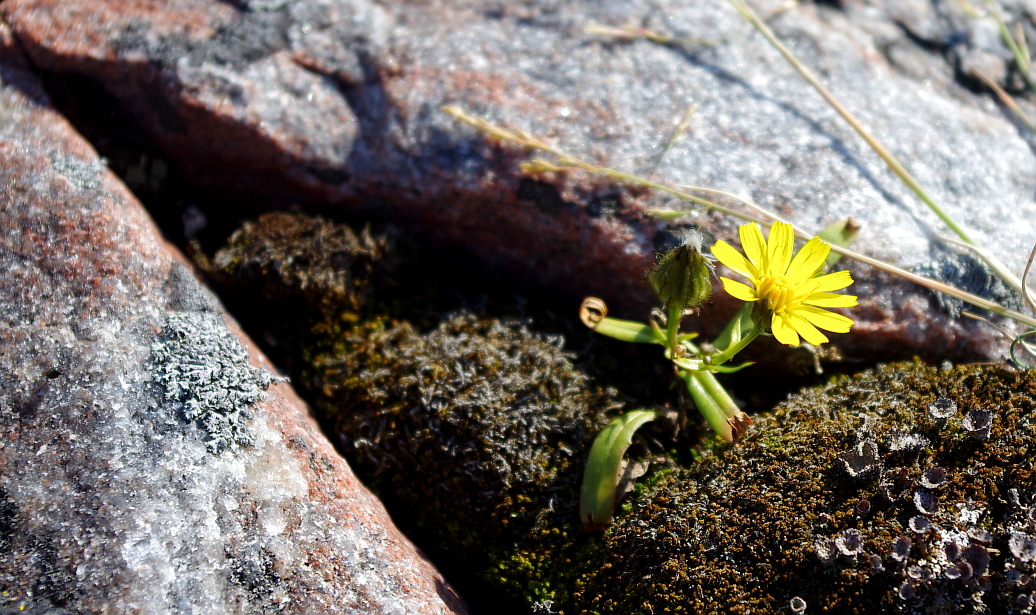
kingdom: Plantae
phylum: Tracheophyta
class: Magnoliopsida
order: Asterales
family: Asteraceae
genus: Crepis
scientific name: Crepis nigrescens
